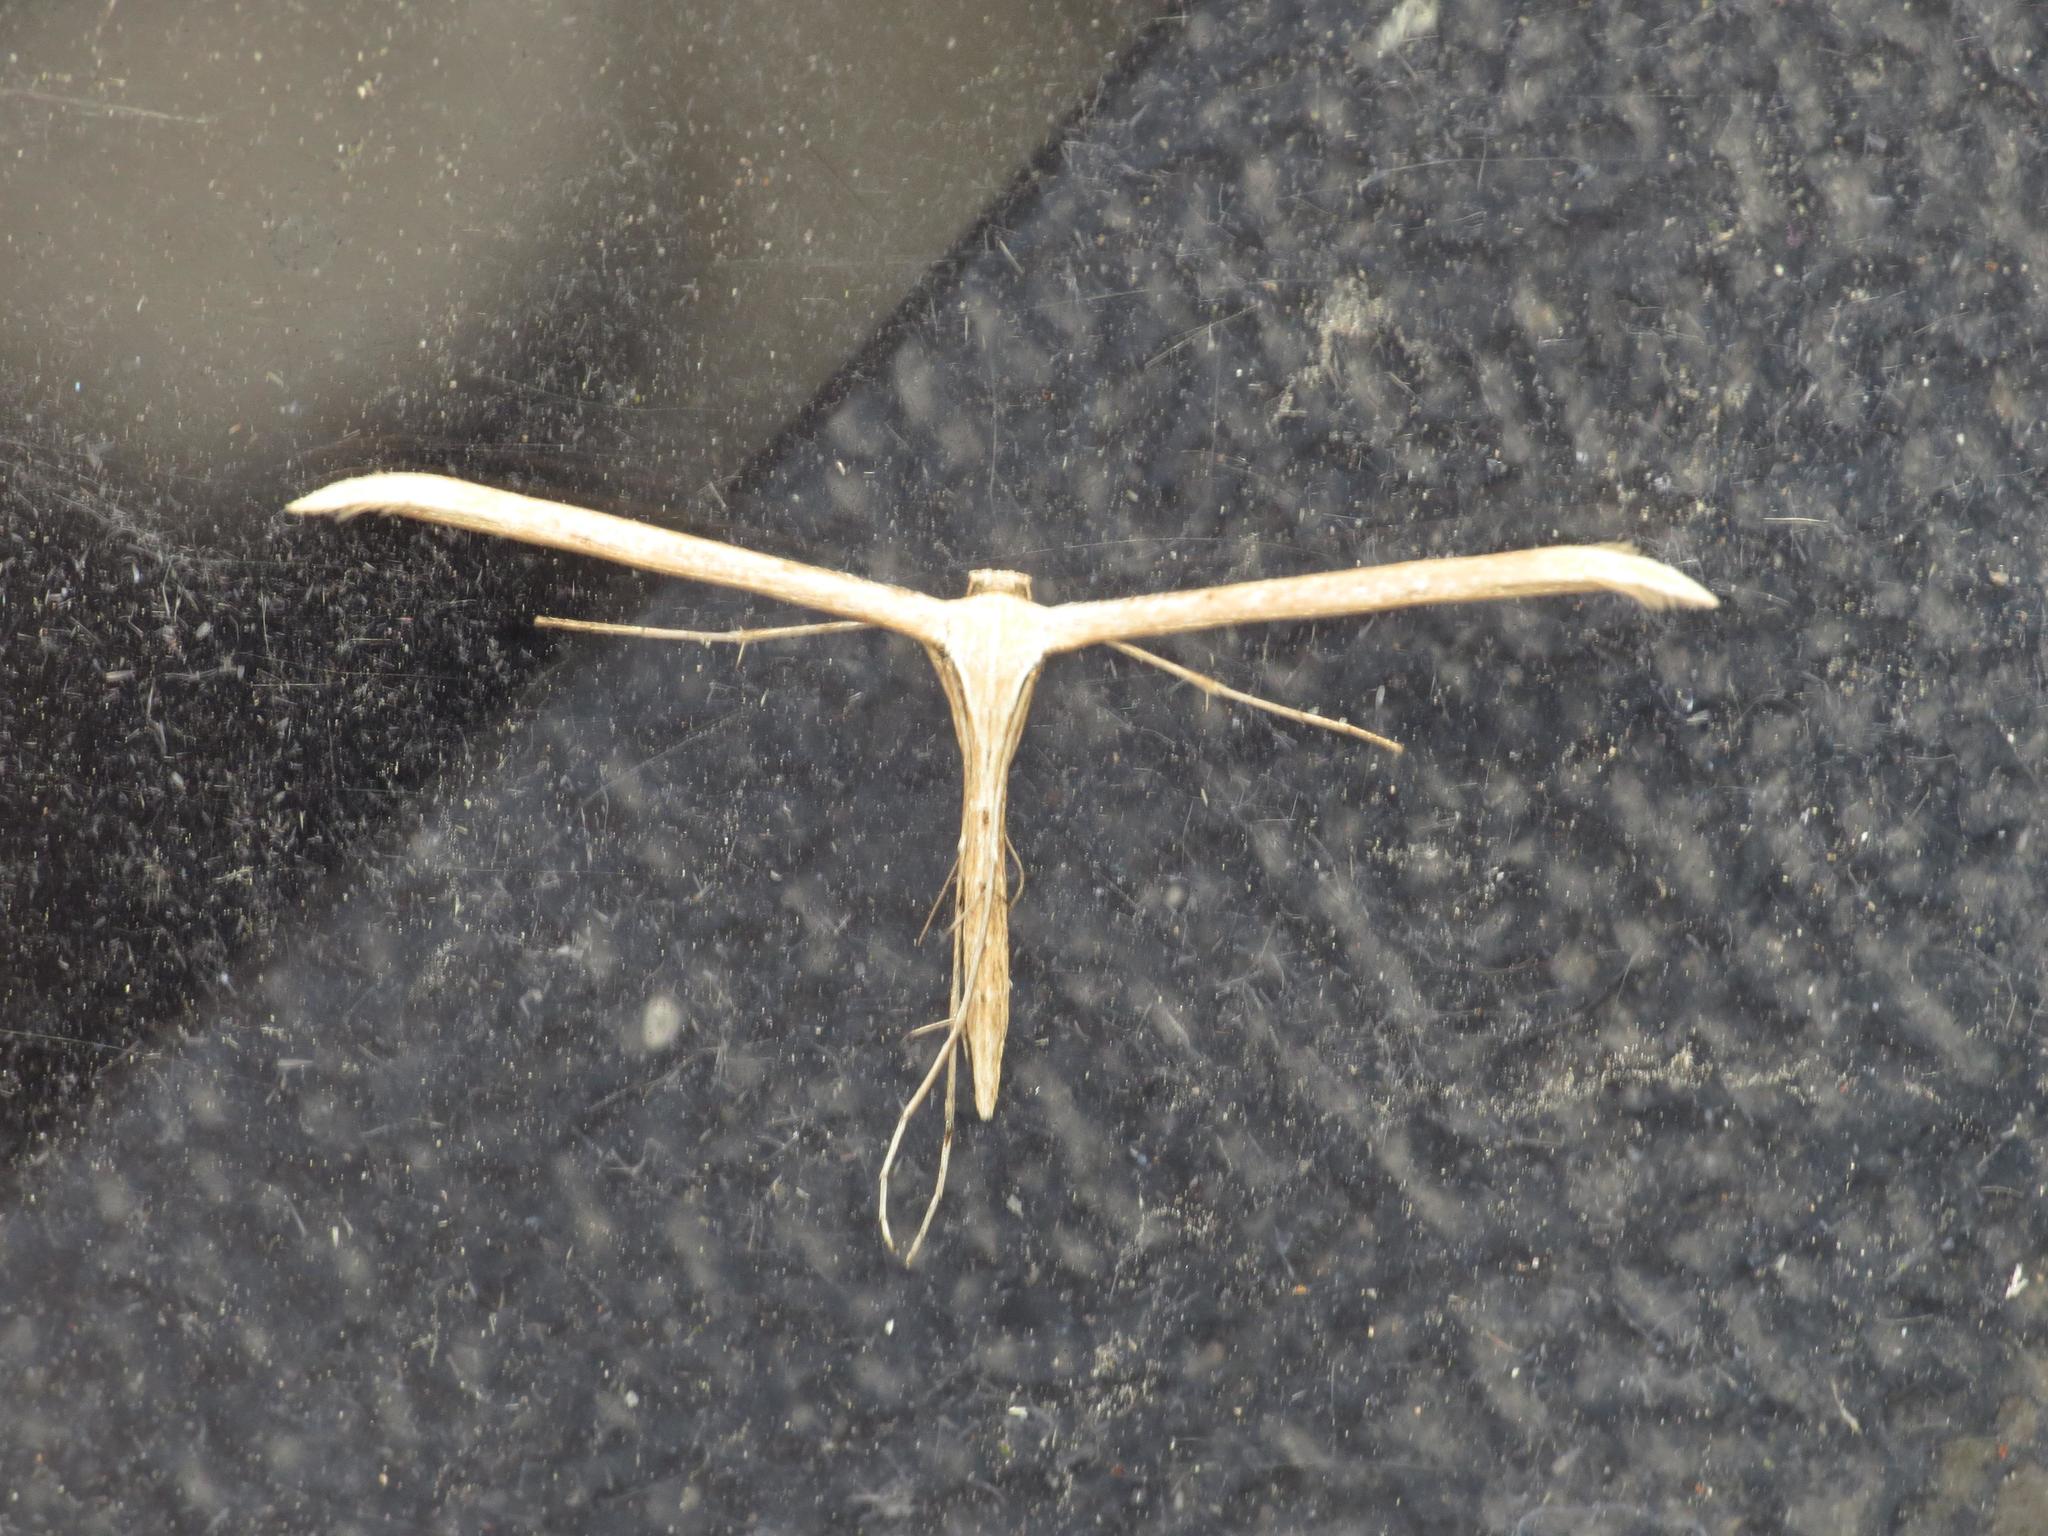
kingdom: Animalia
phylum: Arthropoda
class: Insecta
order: Lepidoptera
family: Pterophoridae
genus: Emmelina
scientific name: Emmelina monodactyla
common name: Common plume
